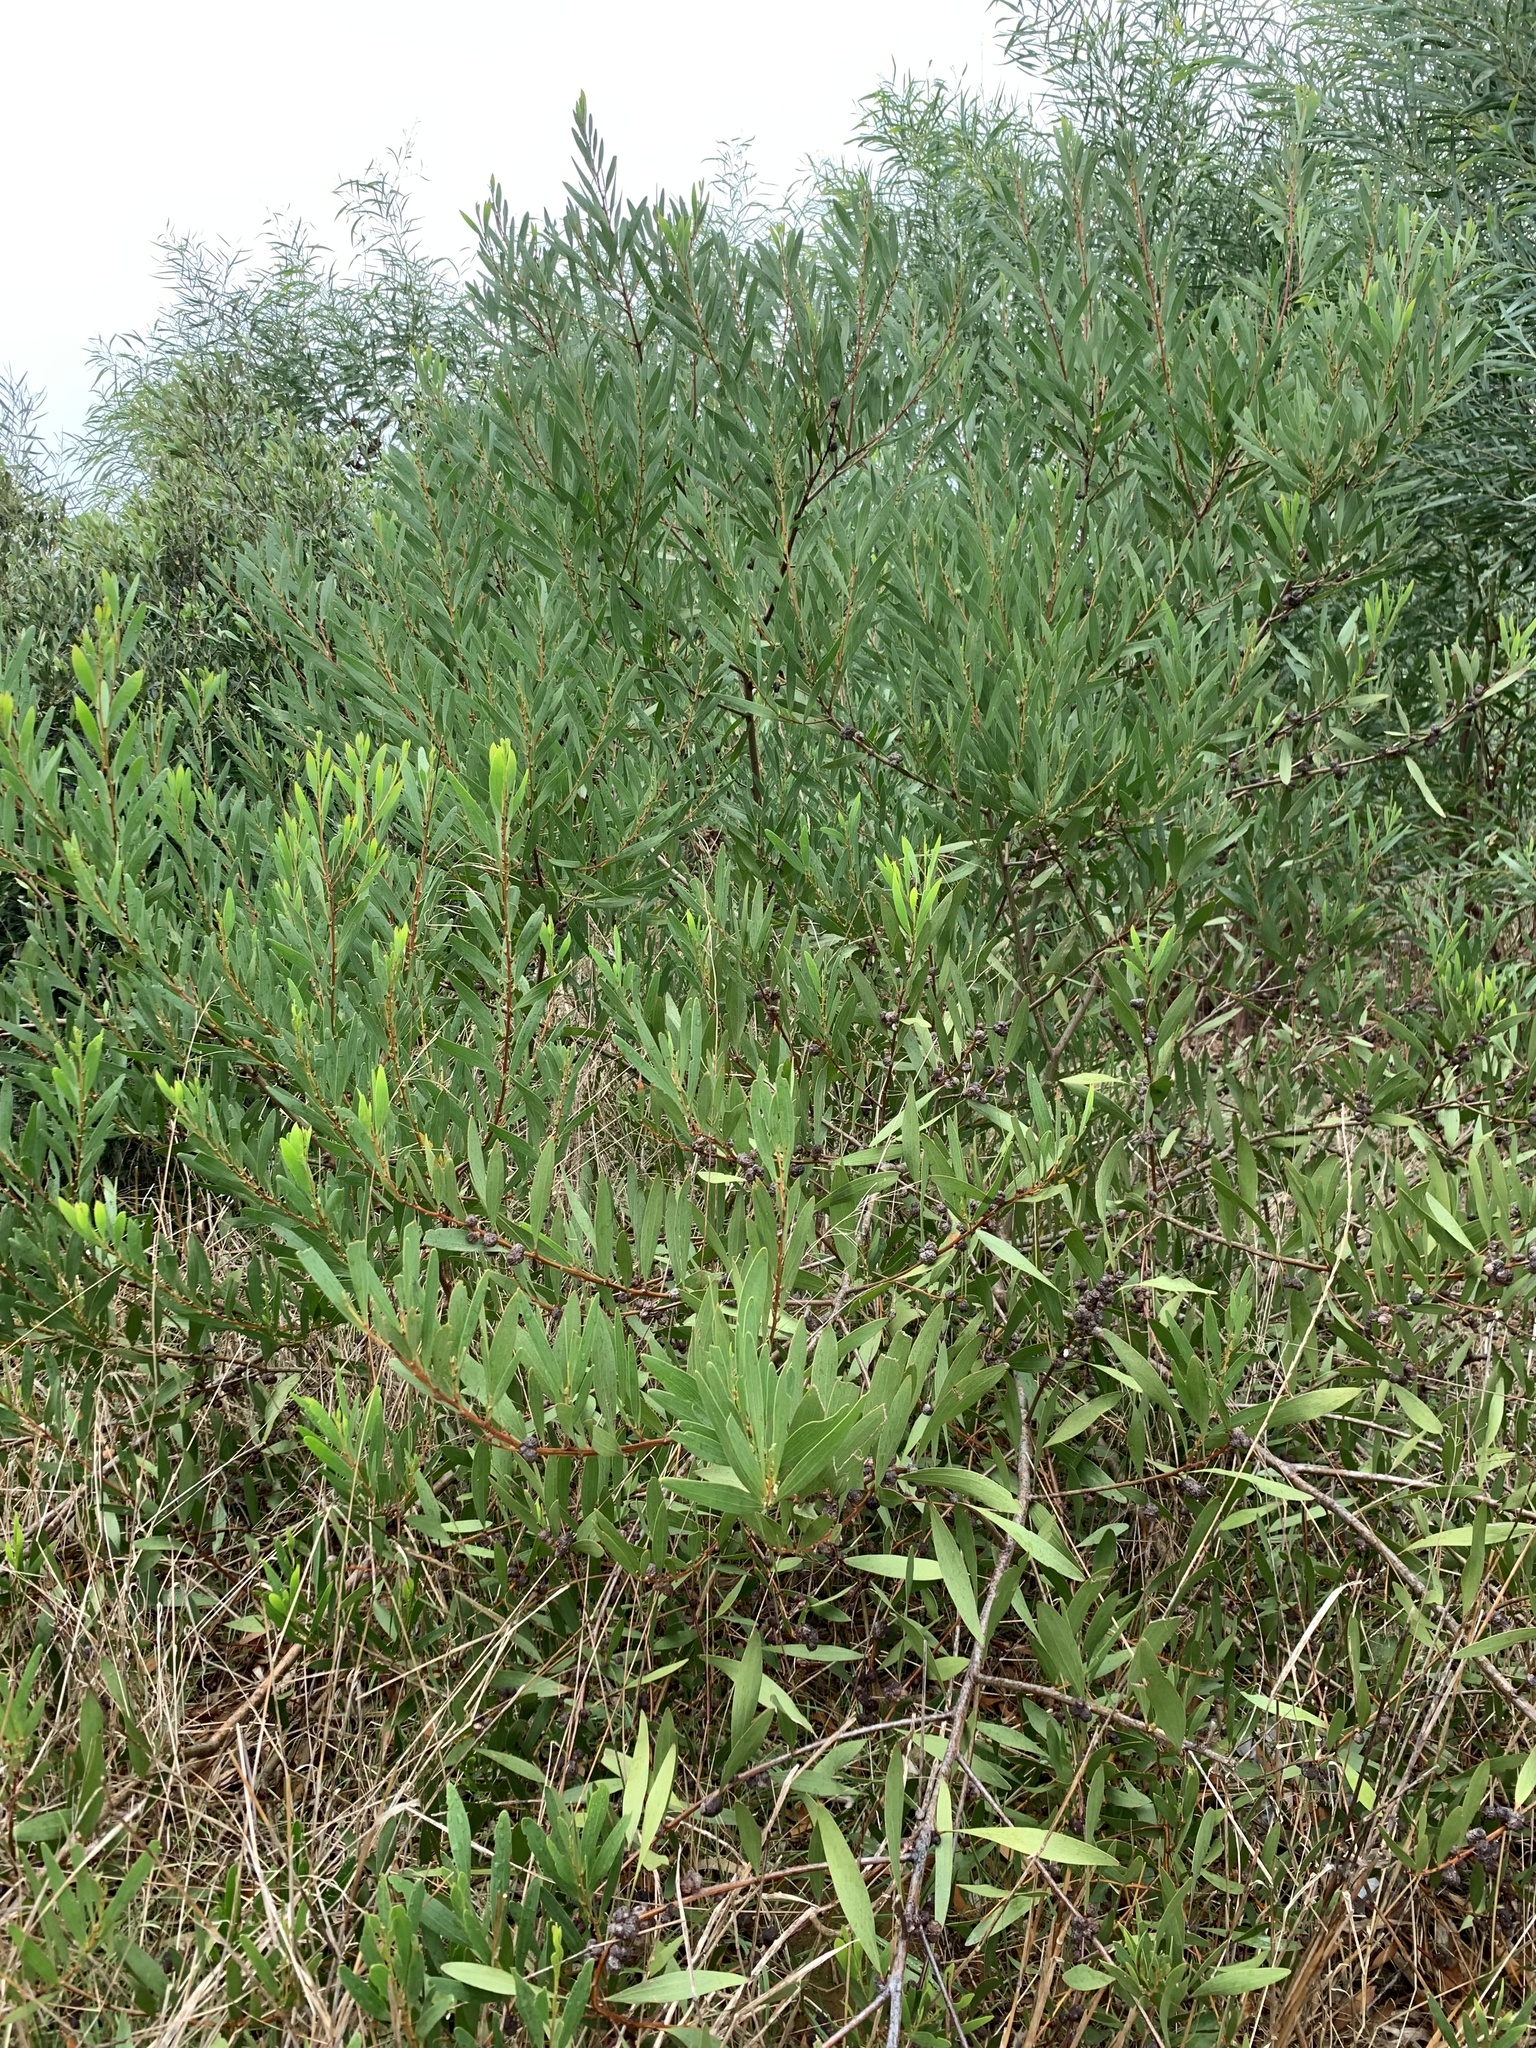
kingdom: Plantae
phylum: Tracheophyta
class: Magnoliopsida
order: Fabales
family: Fabaceae
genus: Acacia
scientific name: Acacia longifolia
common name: Sydney golden wattle
